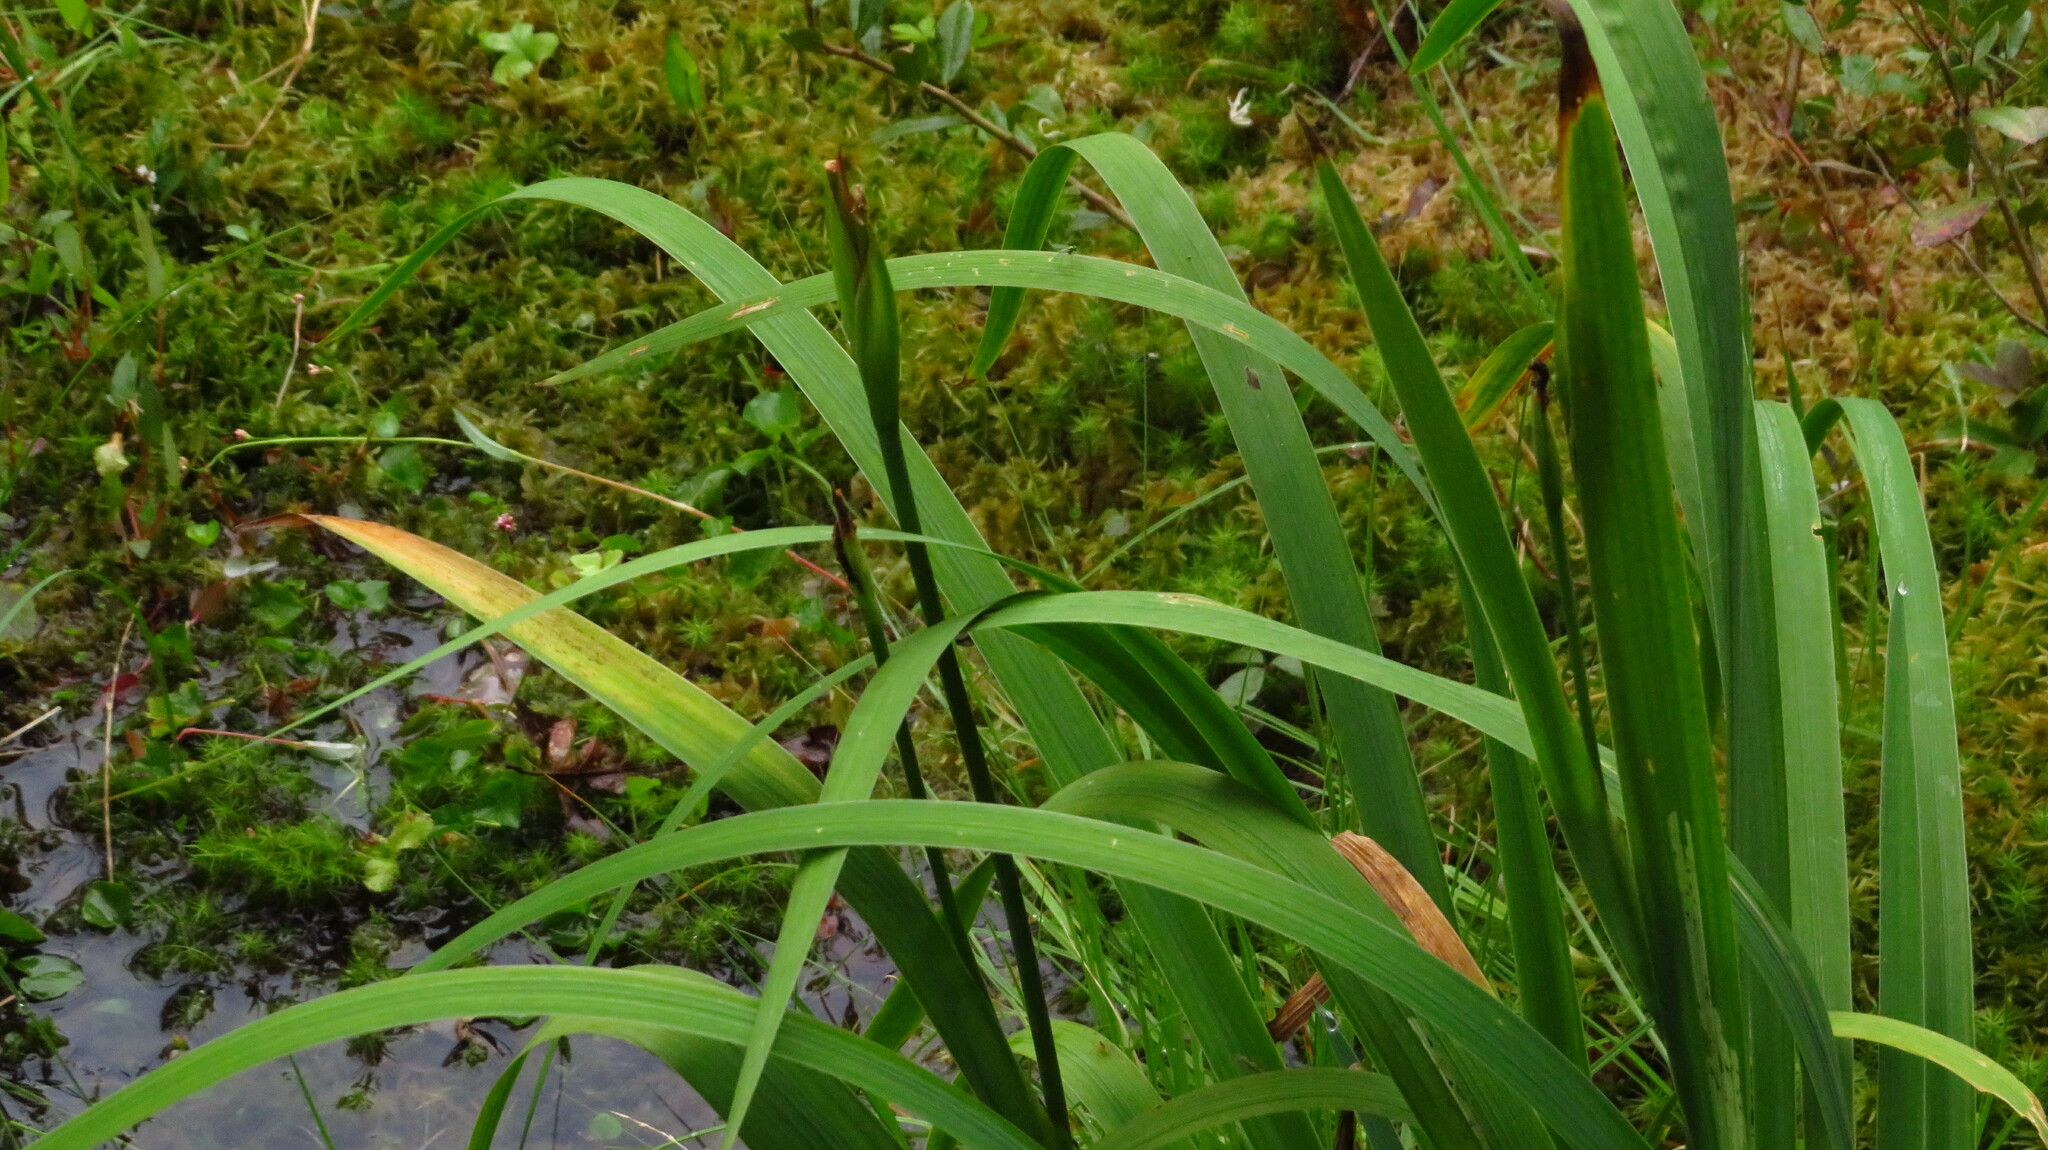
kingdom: Plantae
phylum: Tracheophyta
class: Liliopsida
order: Asparagales
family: Iridaceae
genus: Iris
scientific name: Iris versicolor
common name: Purple iris
